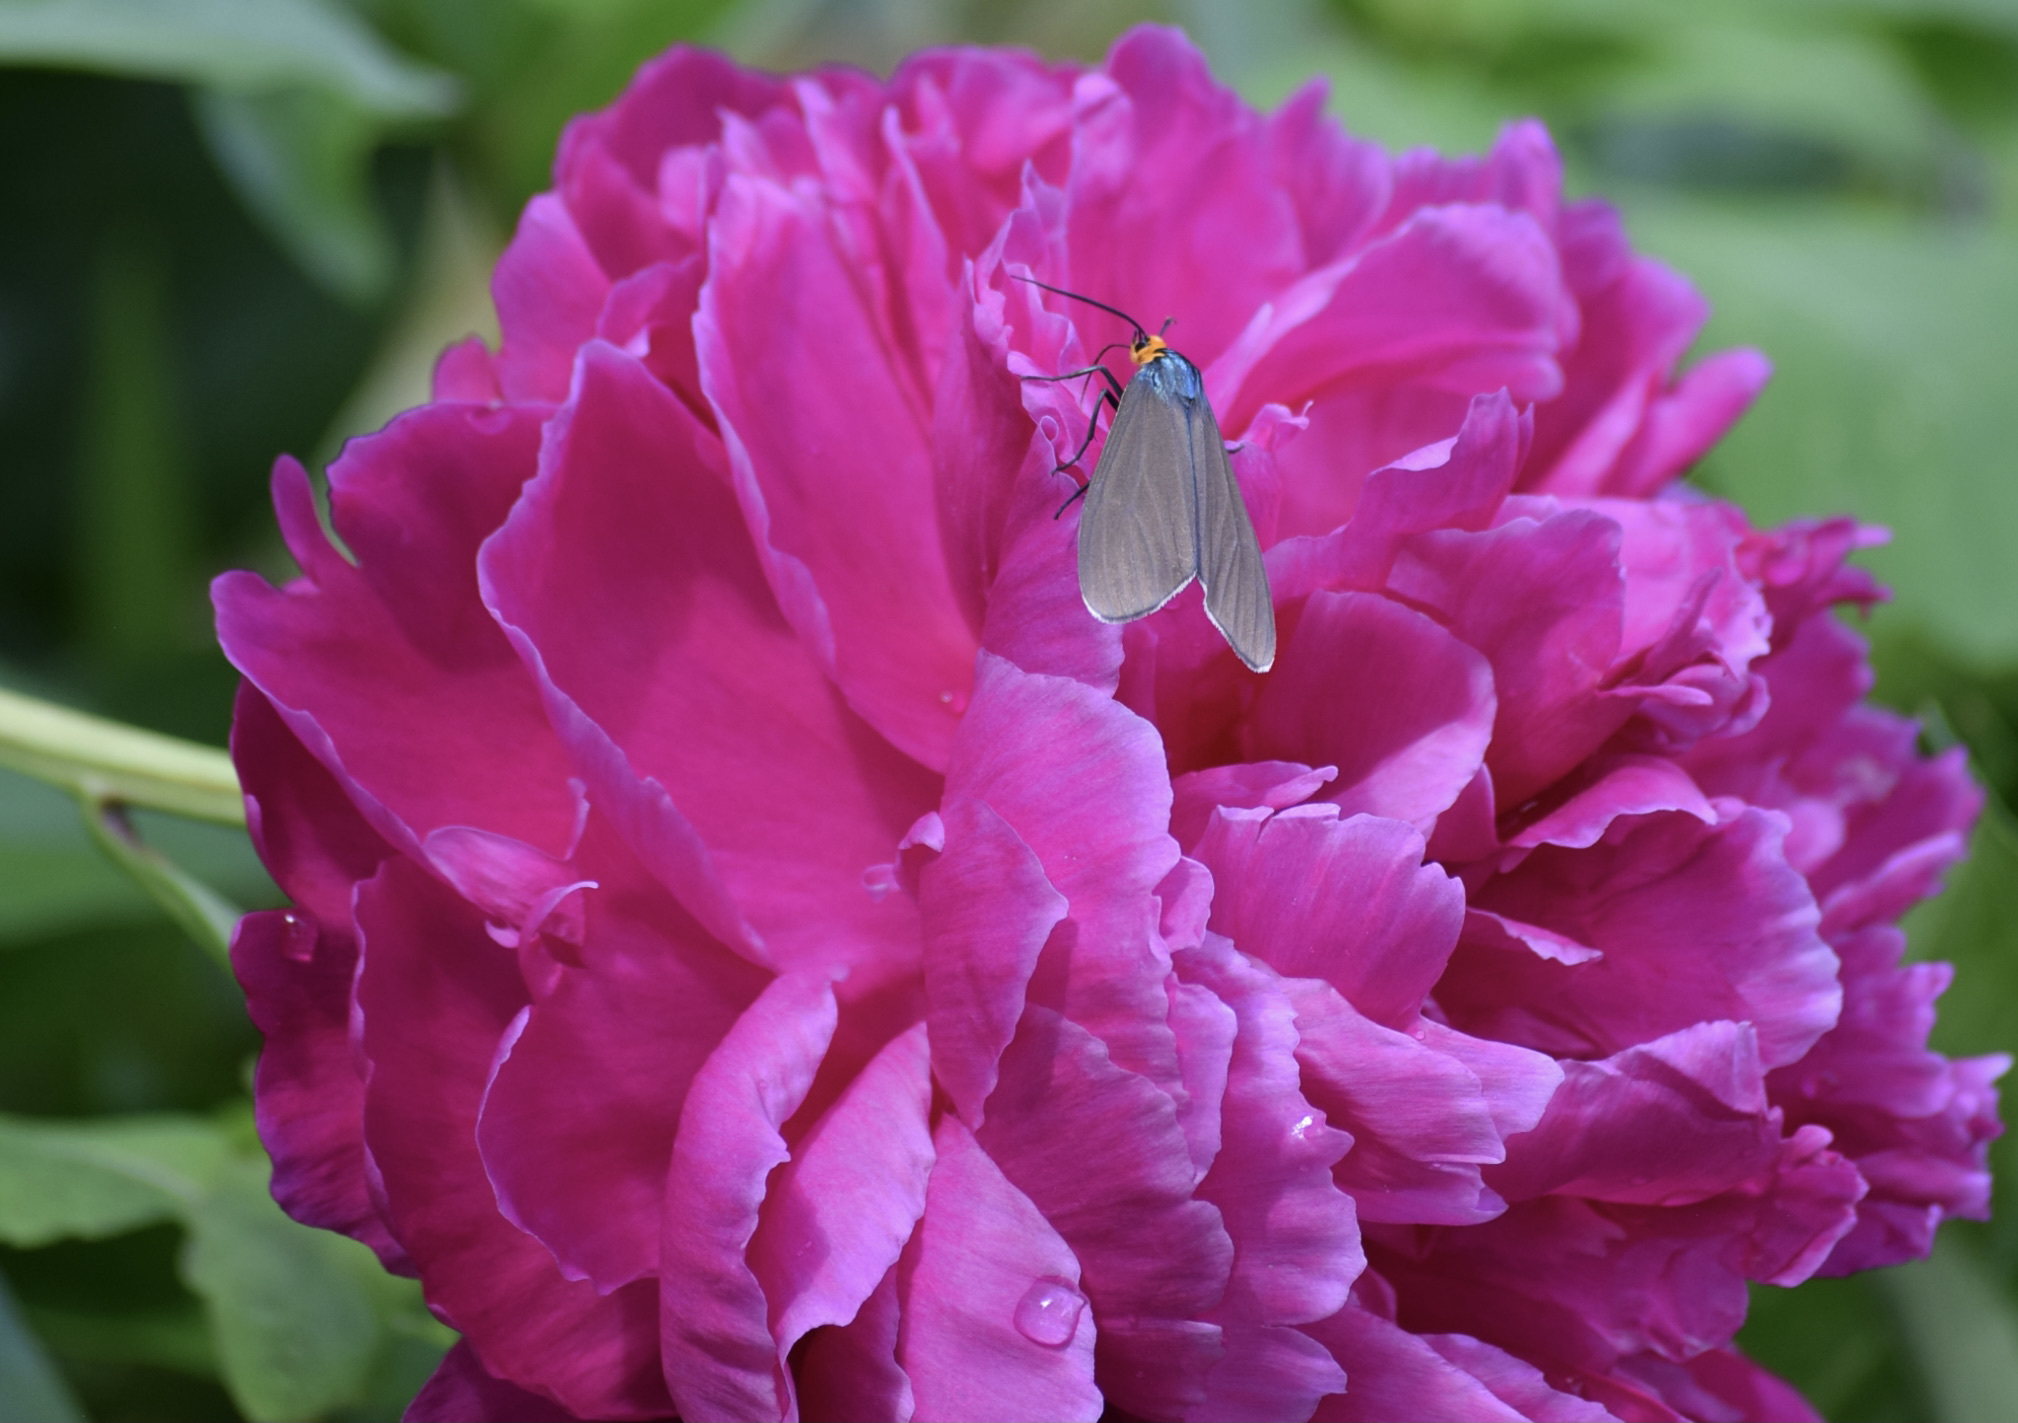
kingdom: Animalia
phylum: Arthropoda
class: Insecta
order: Lepidoptera
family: Erebidae
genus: Ctenucha
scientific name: Ctenucha virginica
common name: Virginia ctenucha moth
